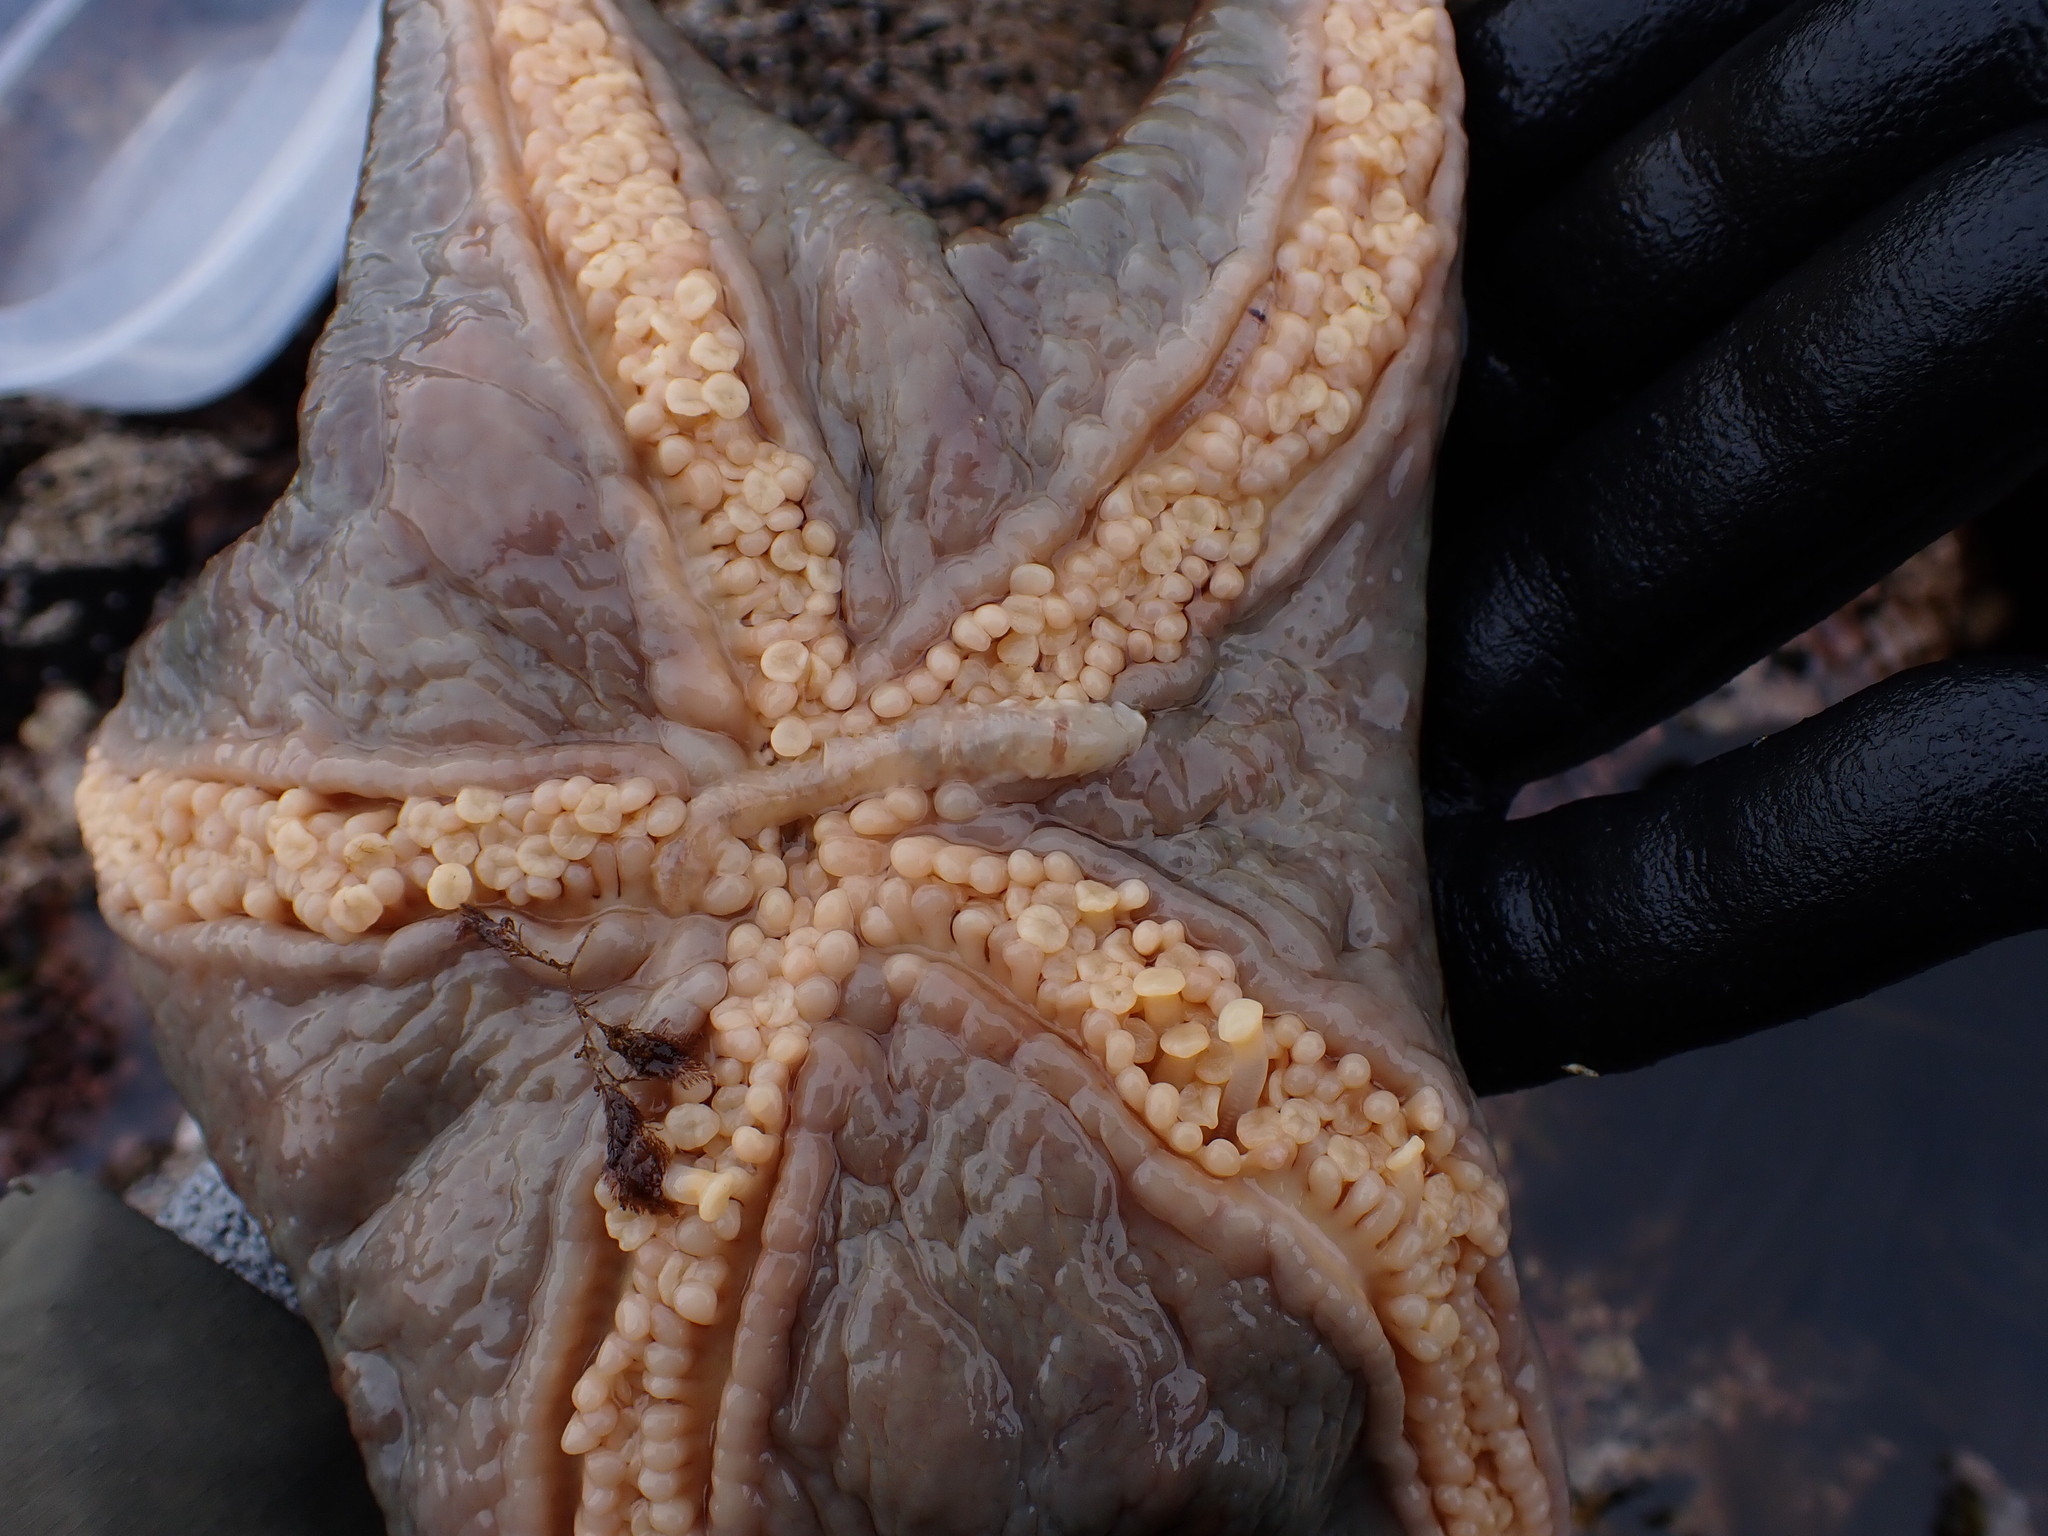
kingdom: Animalia
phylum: Annelida
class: Polychaeta
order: Phyllodocida
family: Polynoidae
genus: Arctonoe
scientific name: Arctonoe vittata
